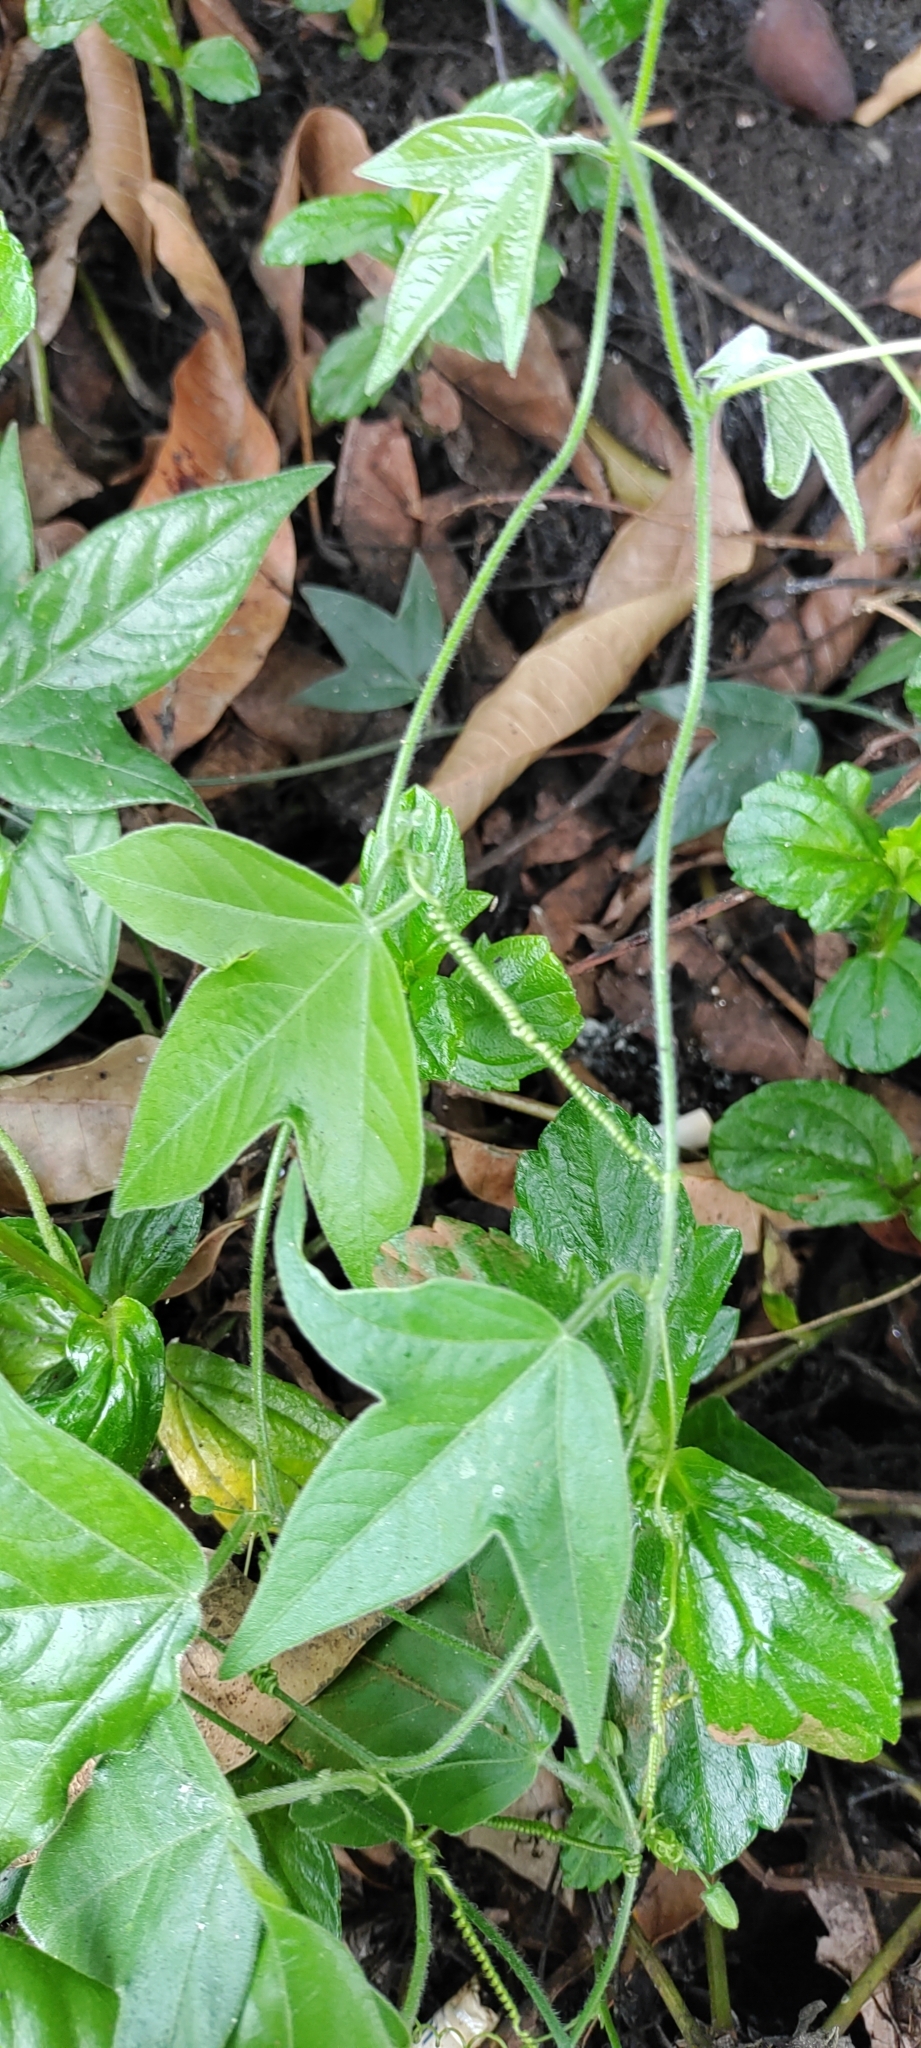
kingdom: Plantae
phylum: Tracheophyta
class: Magnoliopsida
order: Malpighiales
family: Passifloraceae
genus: Passiflora
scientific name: Passiflora suberosa
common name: Wild passionfruit
